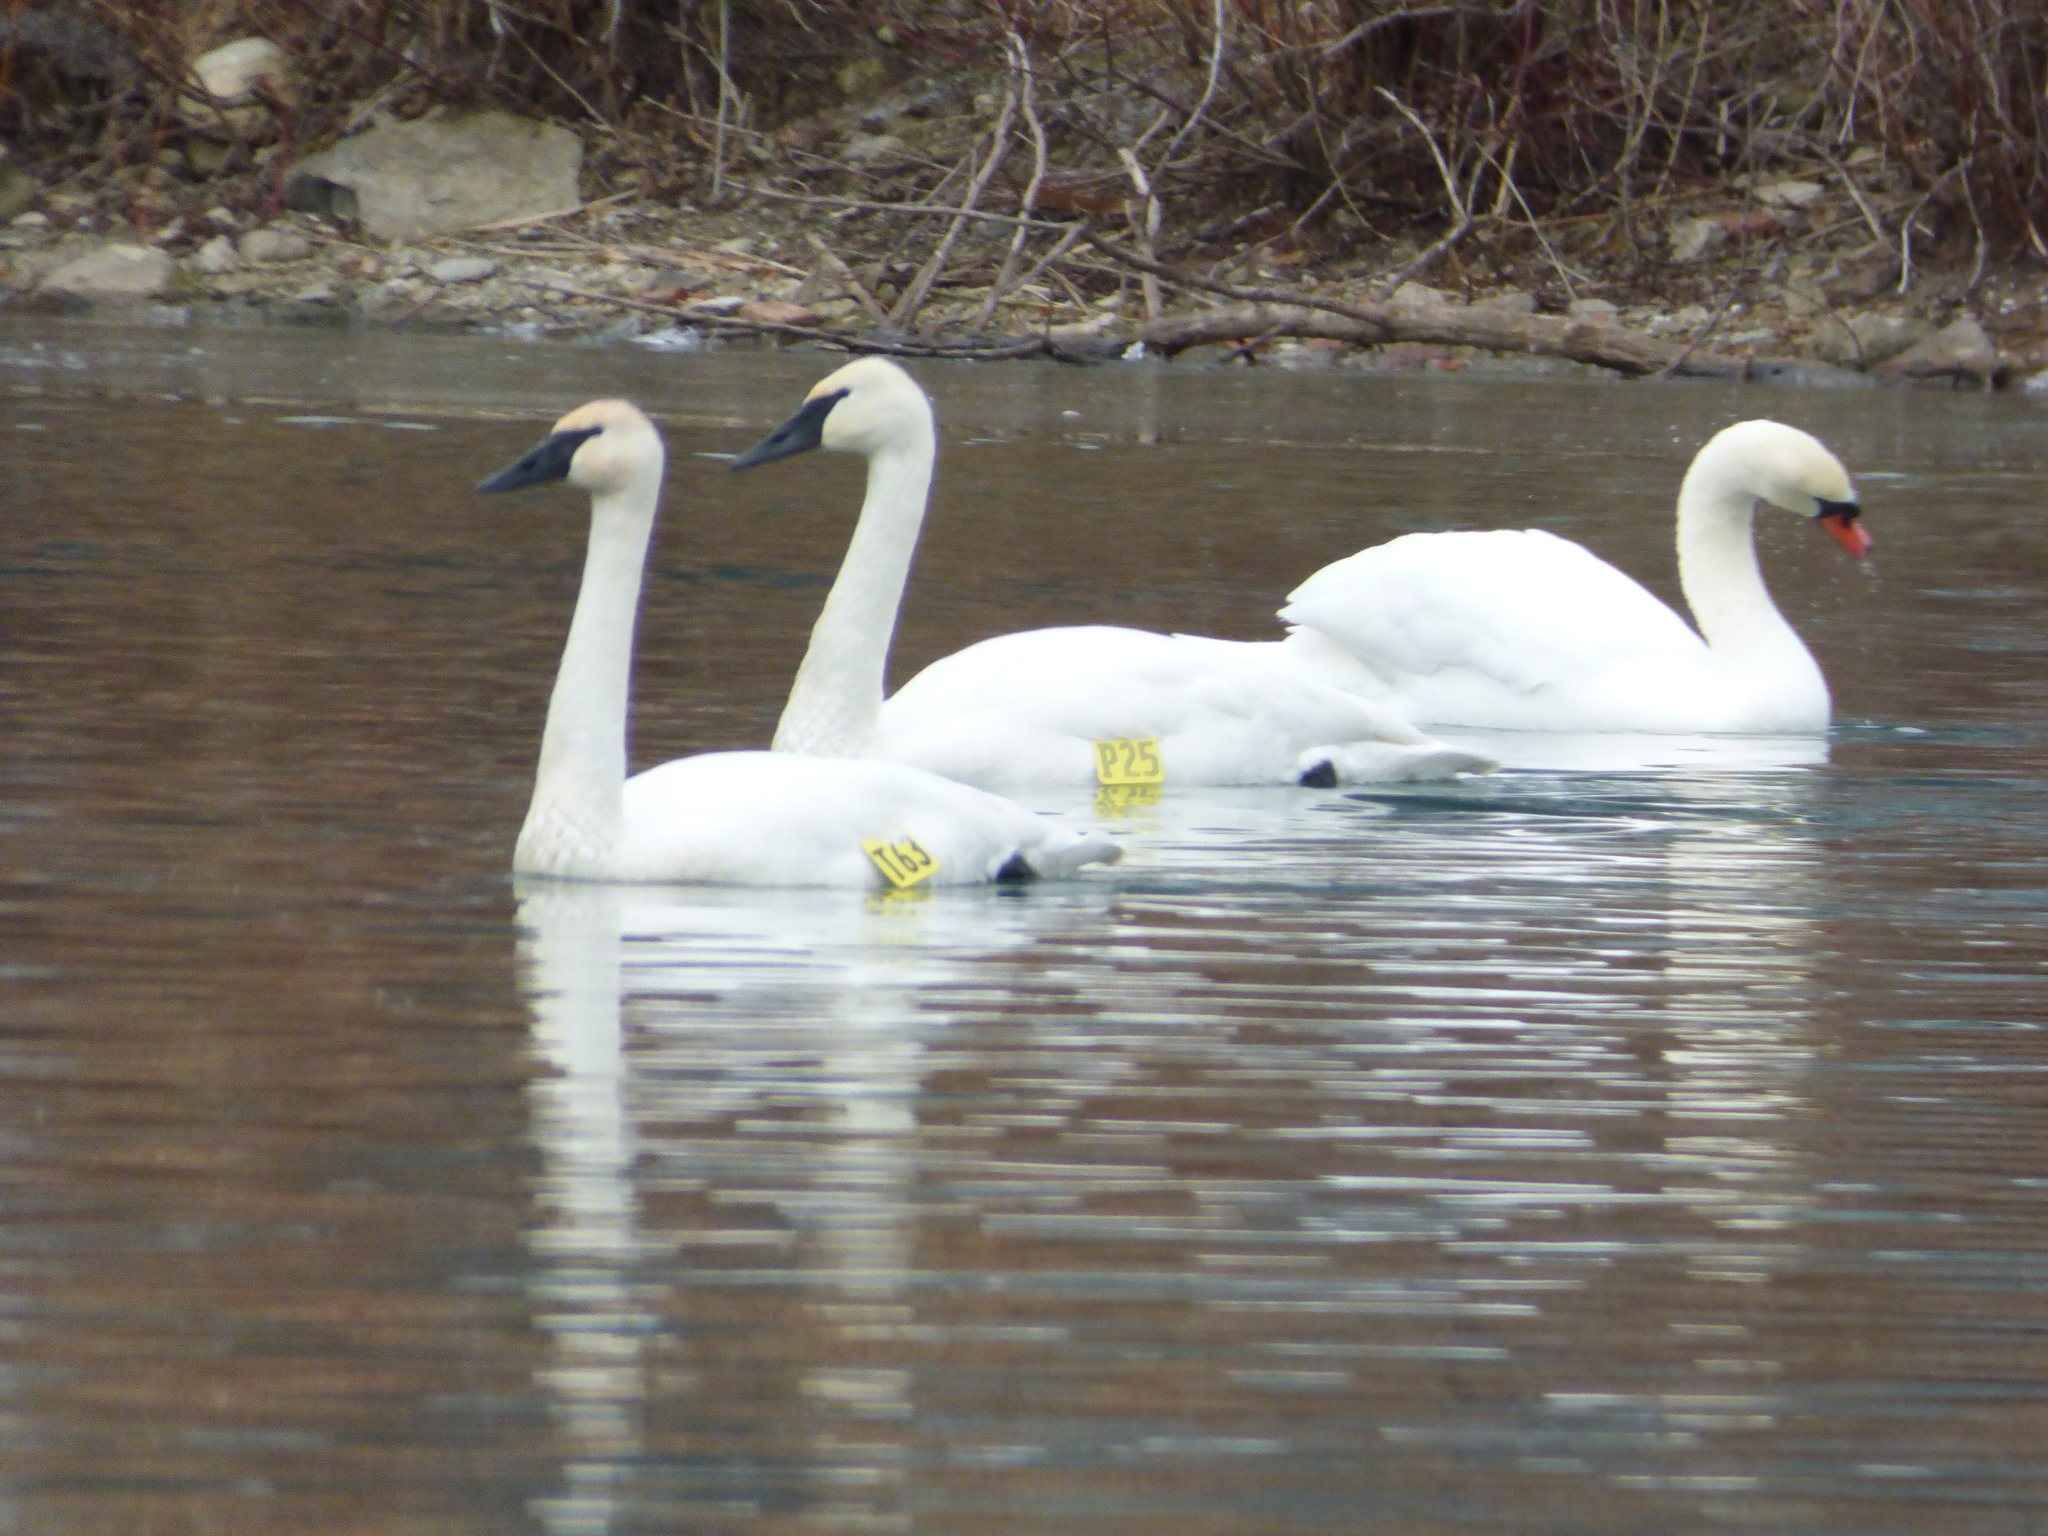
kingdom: Animalia
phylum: Chordata
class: Aves
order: Anseriformes
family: Anatidae
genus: Cygnus
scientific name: Cygnus buccinator
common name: Trumpeter swan
